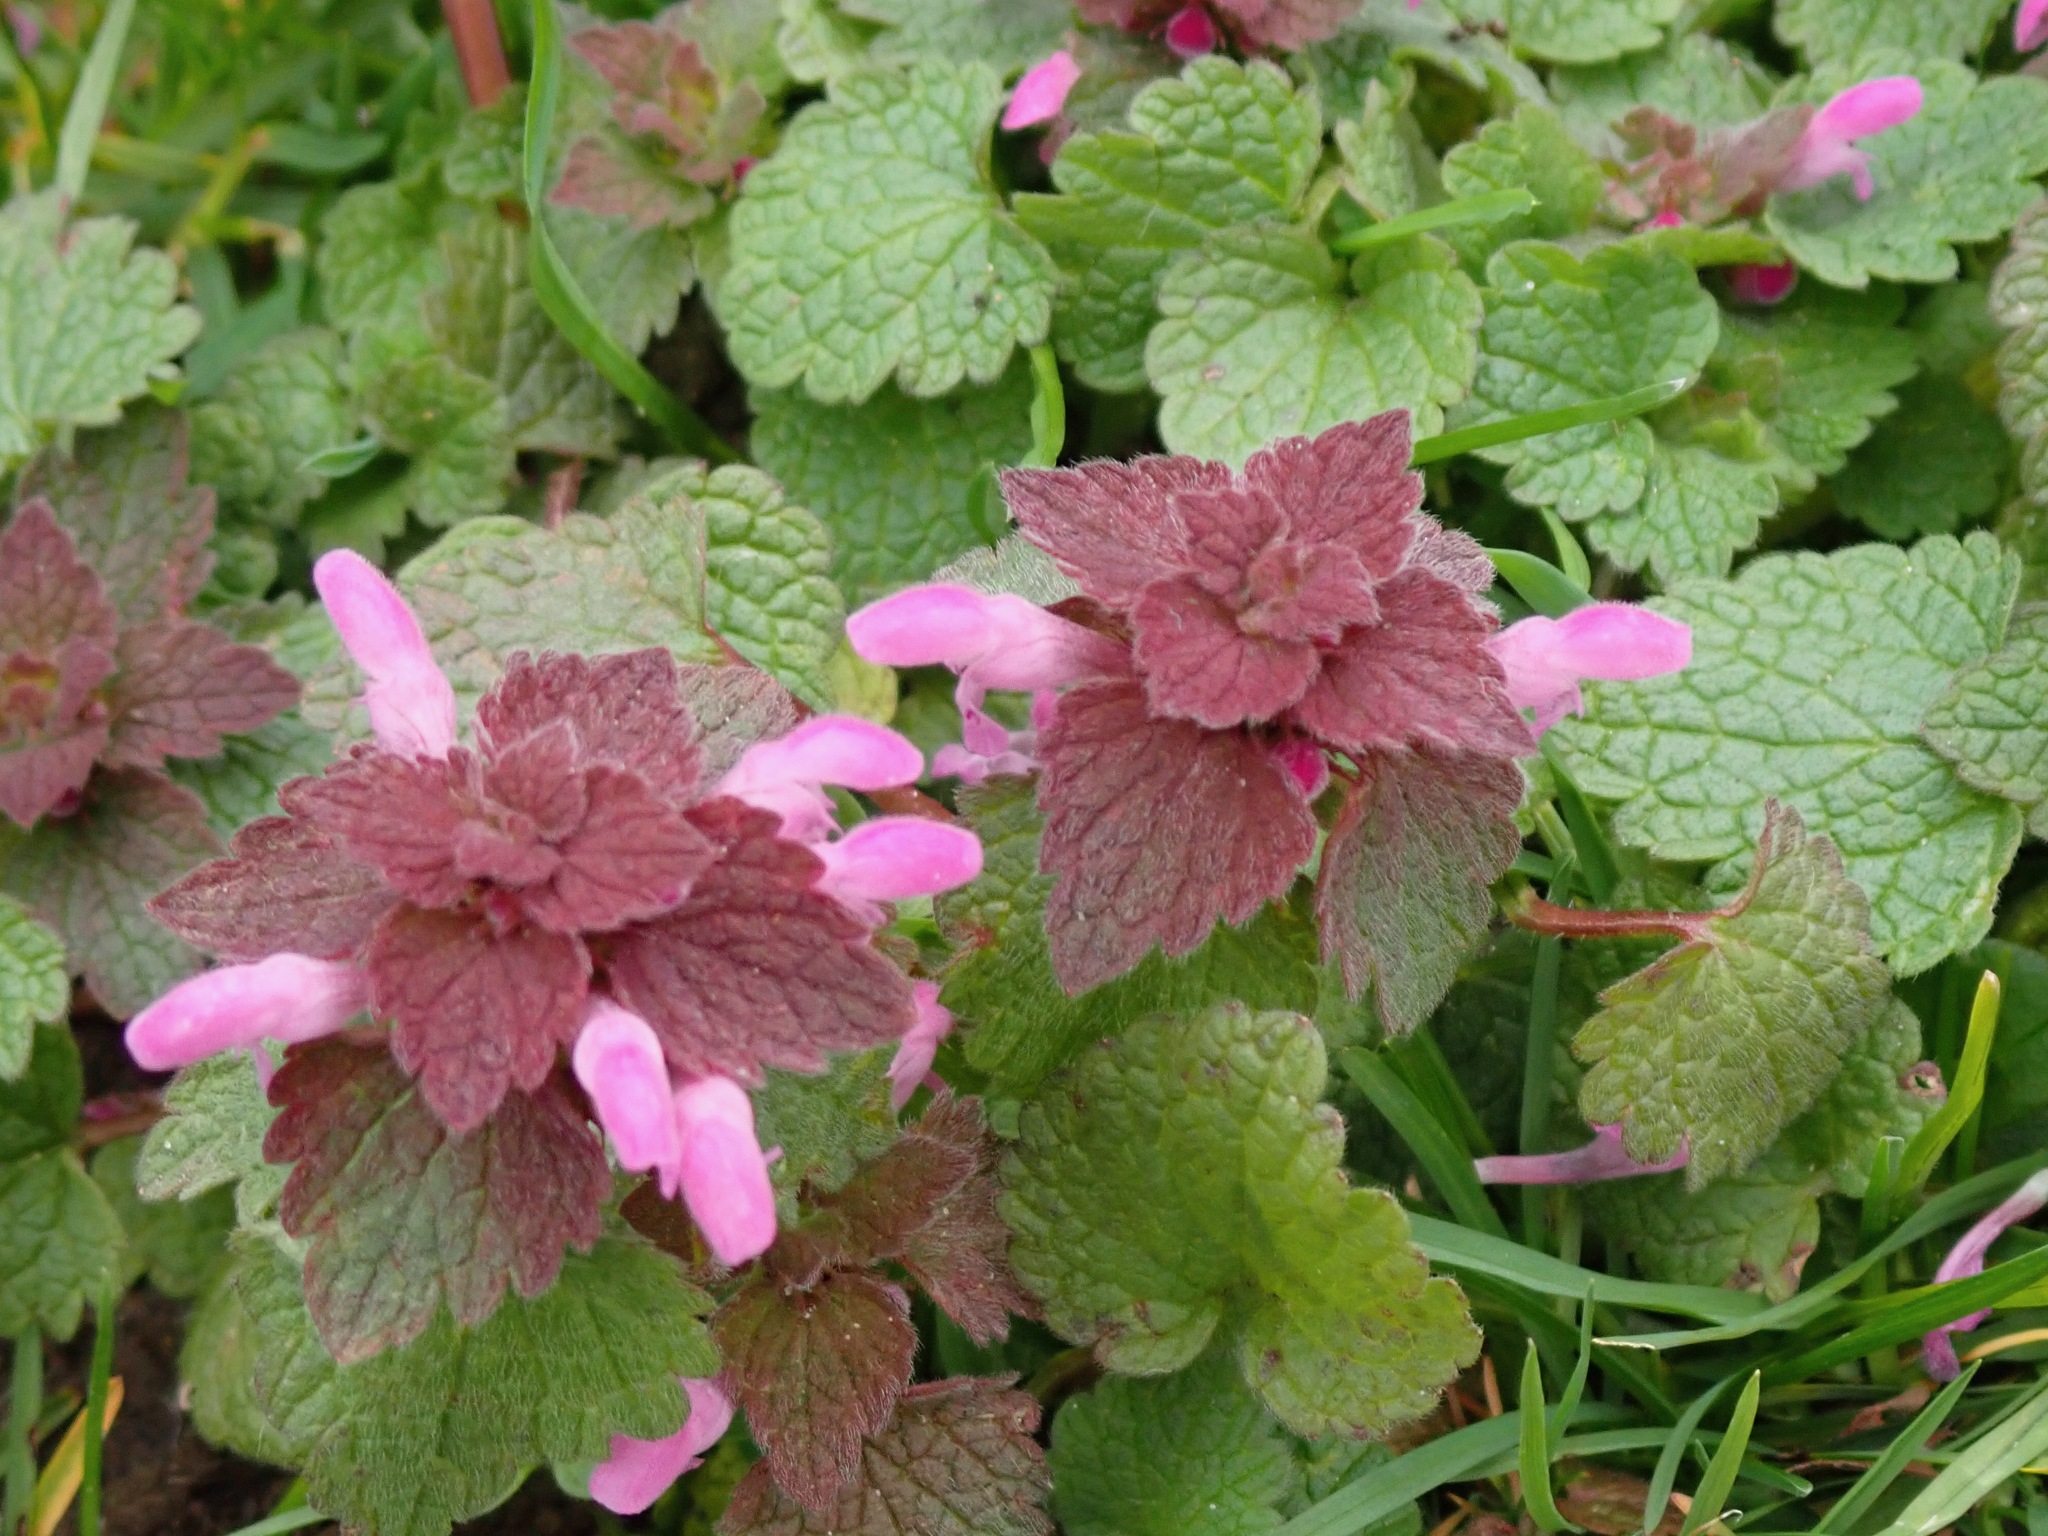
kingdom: Plantae
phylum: Tracheophyta
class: Magnoliopsida
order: Lamiales
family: Lamiaceae
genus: Lamium
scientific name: Lamium purpureum
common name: Red dead-nettle
